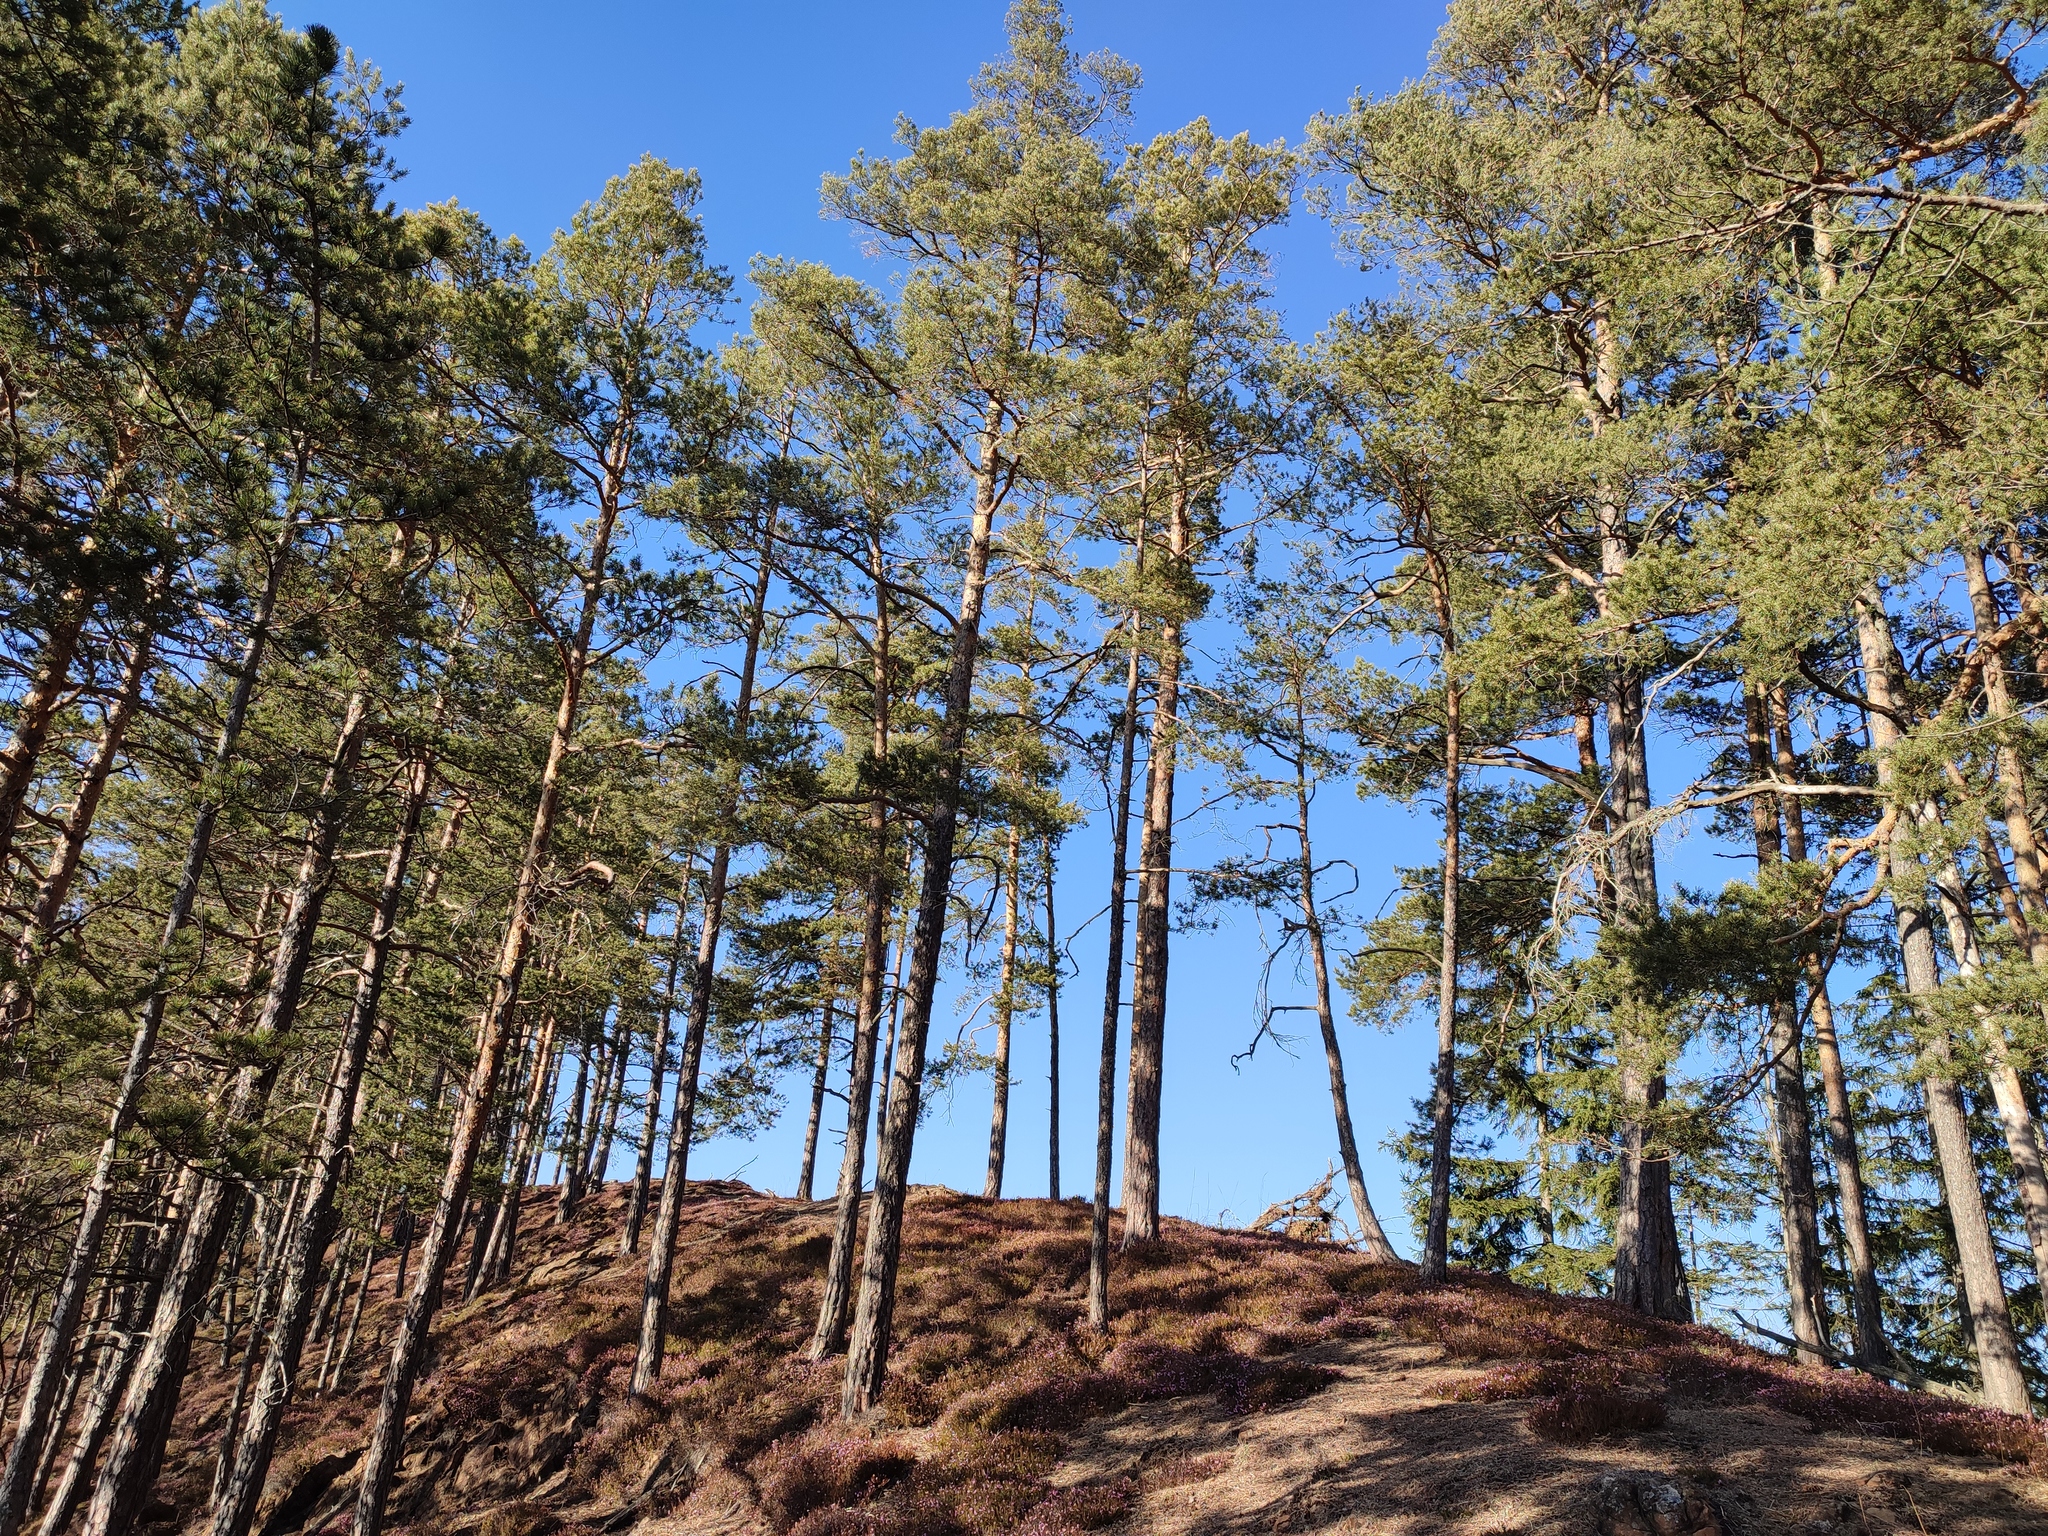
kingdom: Plantae
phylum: Tracheophyta
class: Pinopsida
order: Pinales
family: Pinaceae
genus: Pinus
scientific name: Pinus sylvestris
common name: Scots pine
